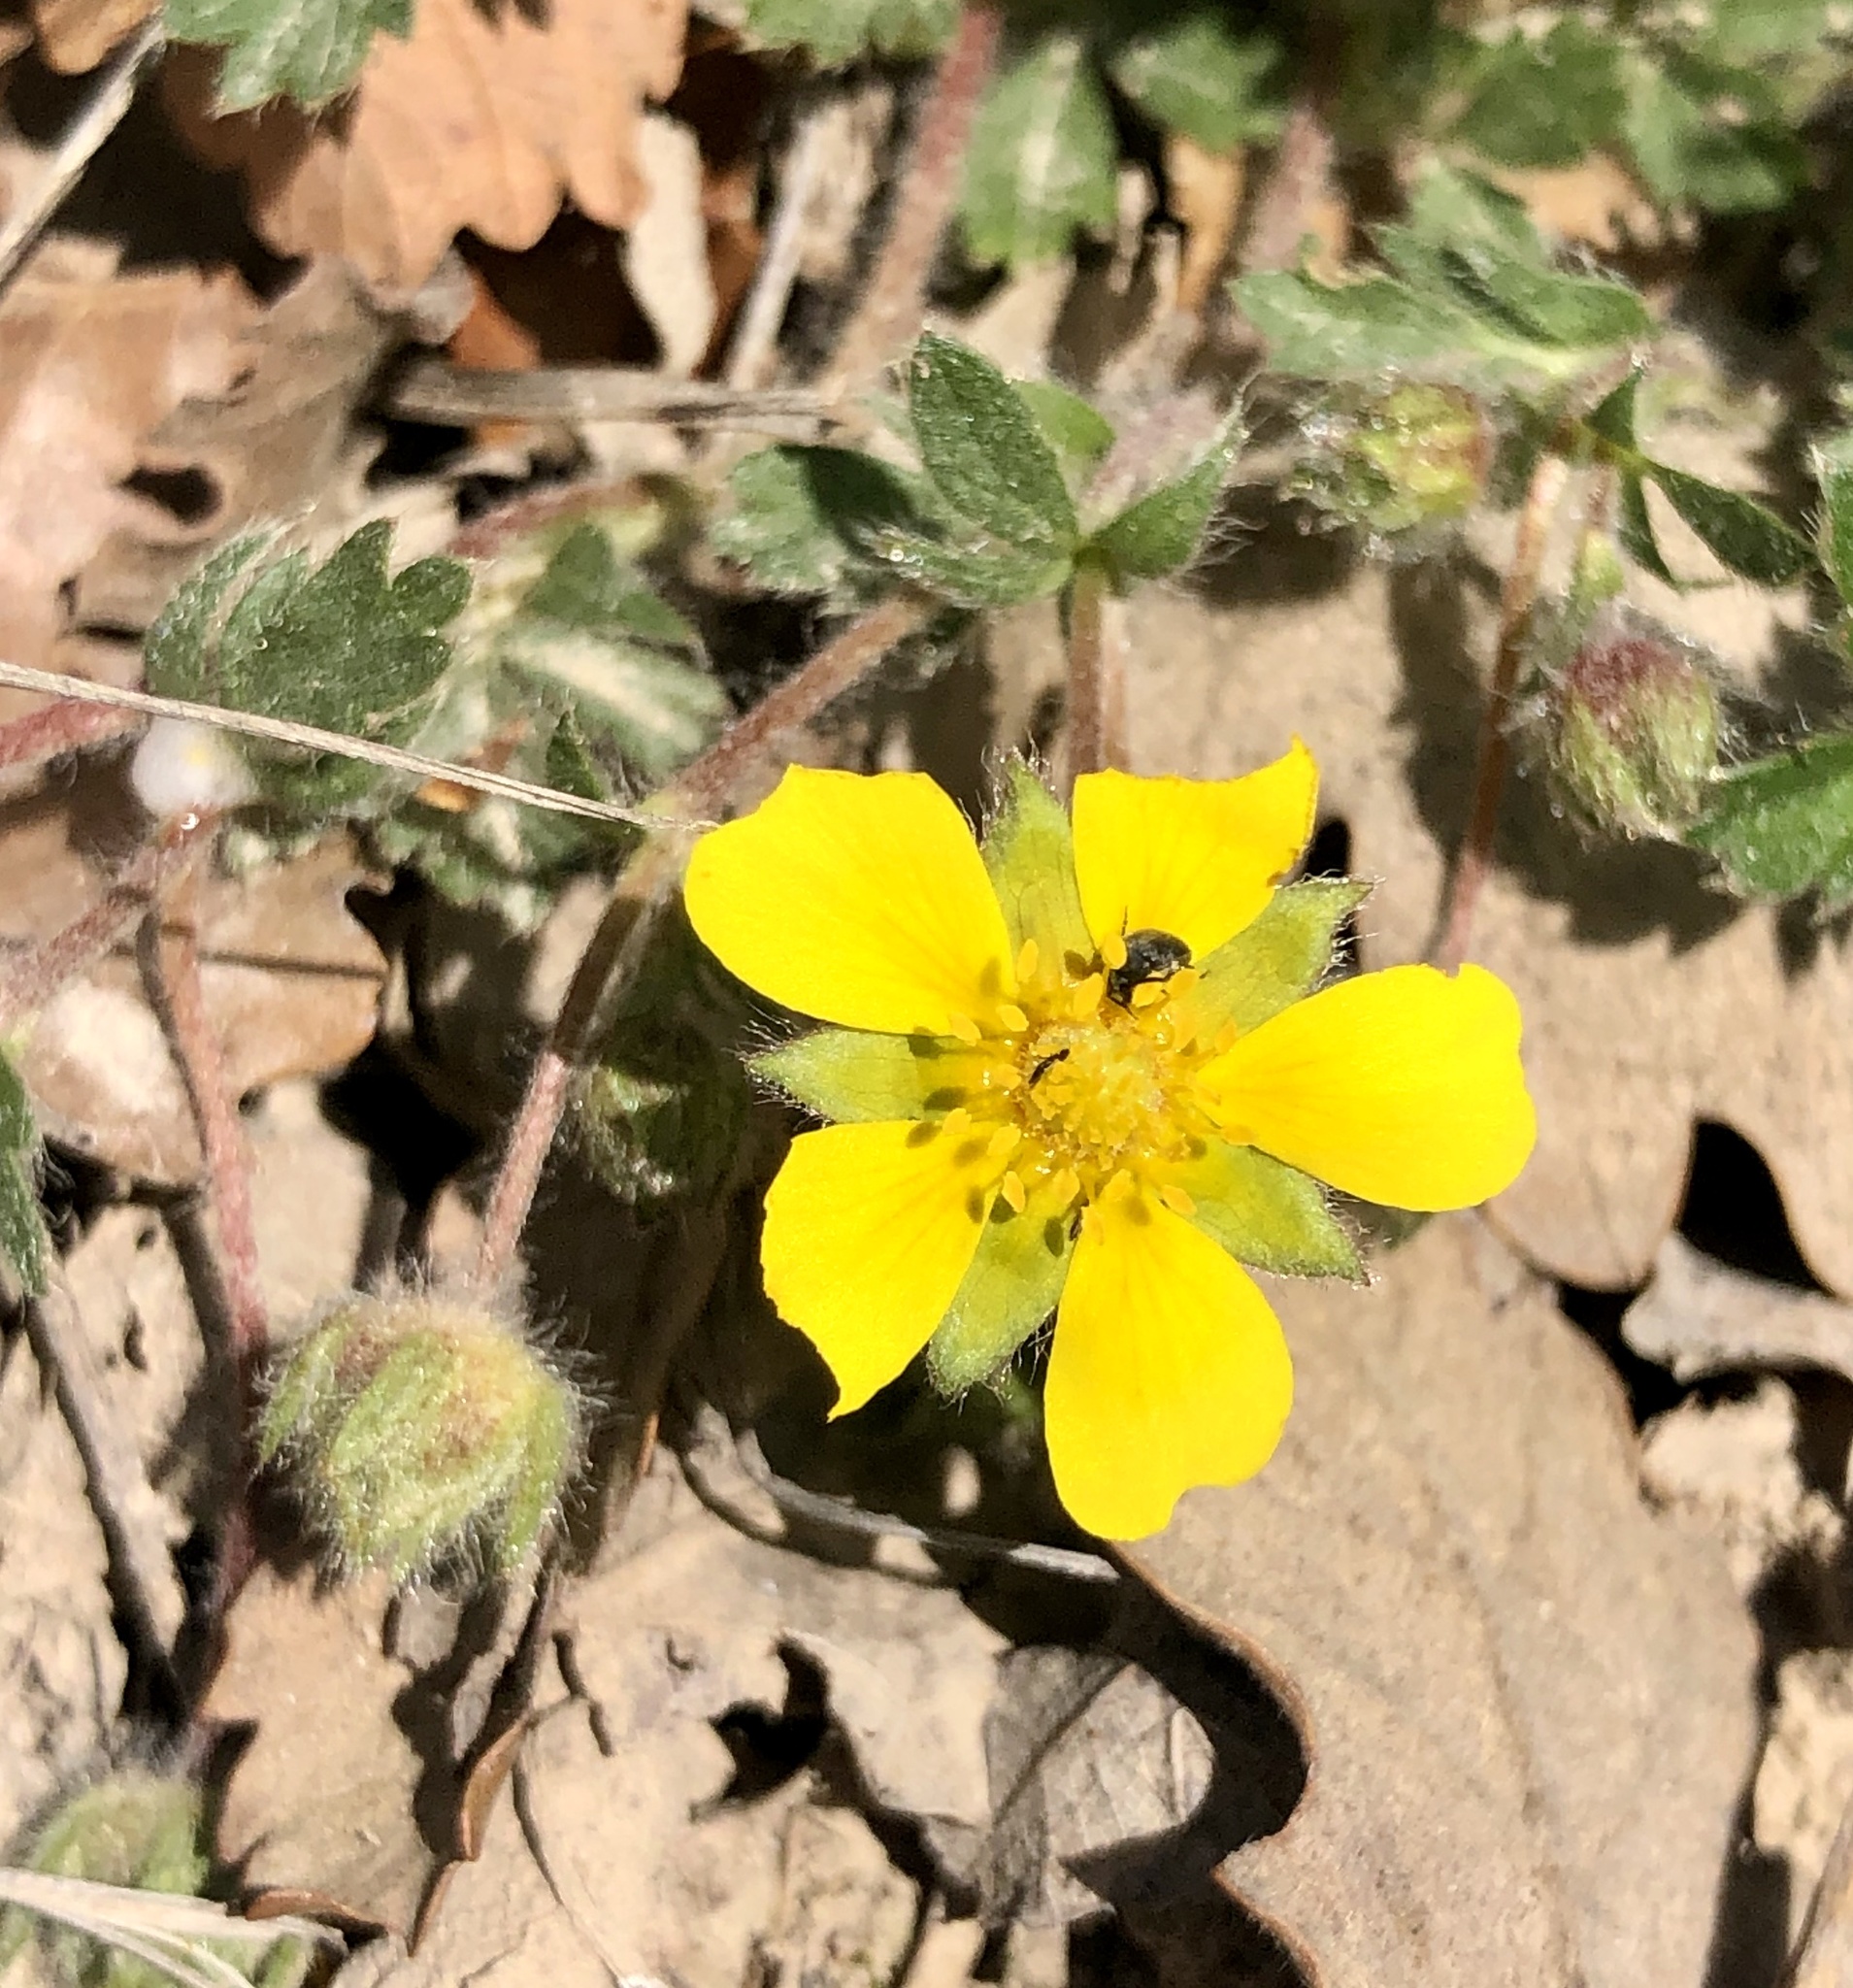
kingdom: Plantae
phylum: Tracheophyta
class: Magnoliopsida
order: Rosales
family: Rosaceae
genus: Potentilla
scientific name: Potentilla verna
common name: Spring cinquefoil
